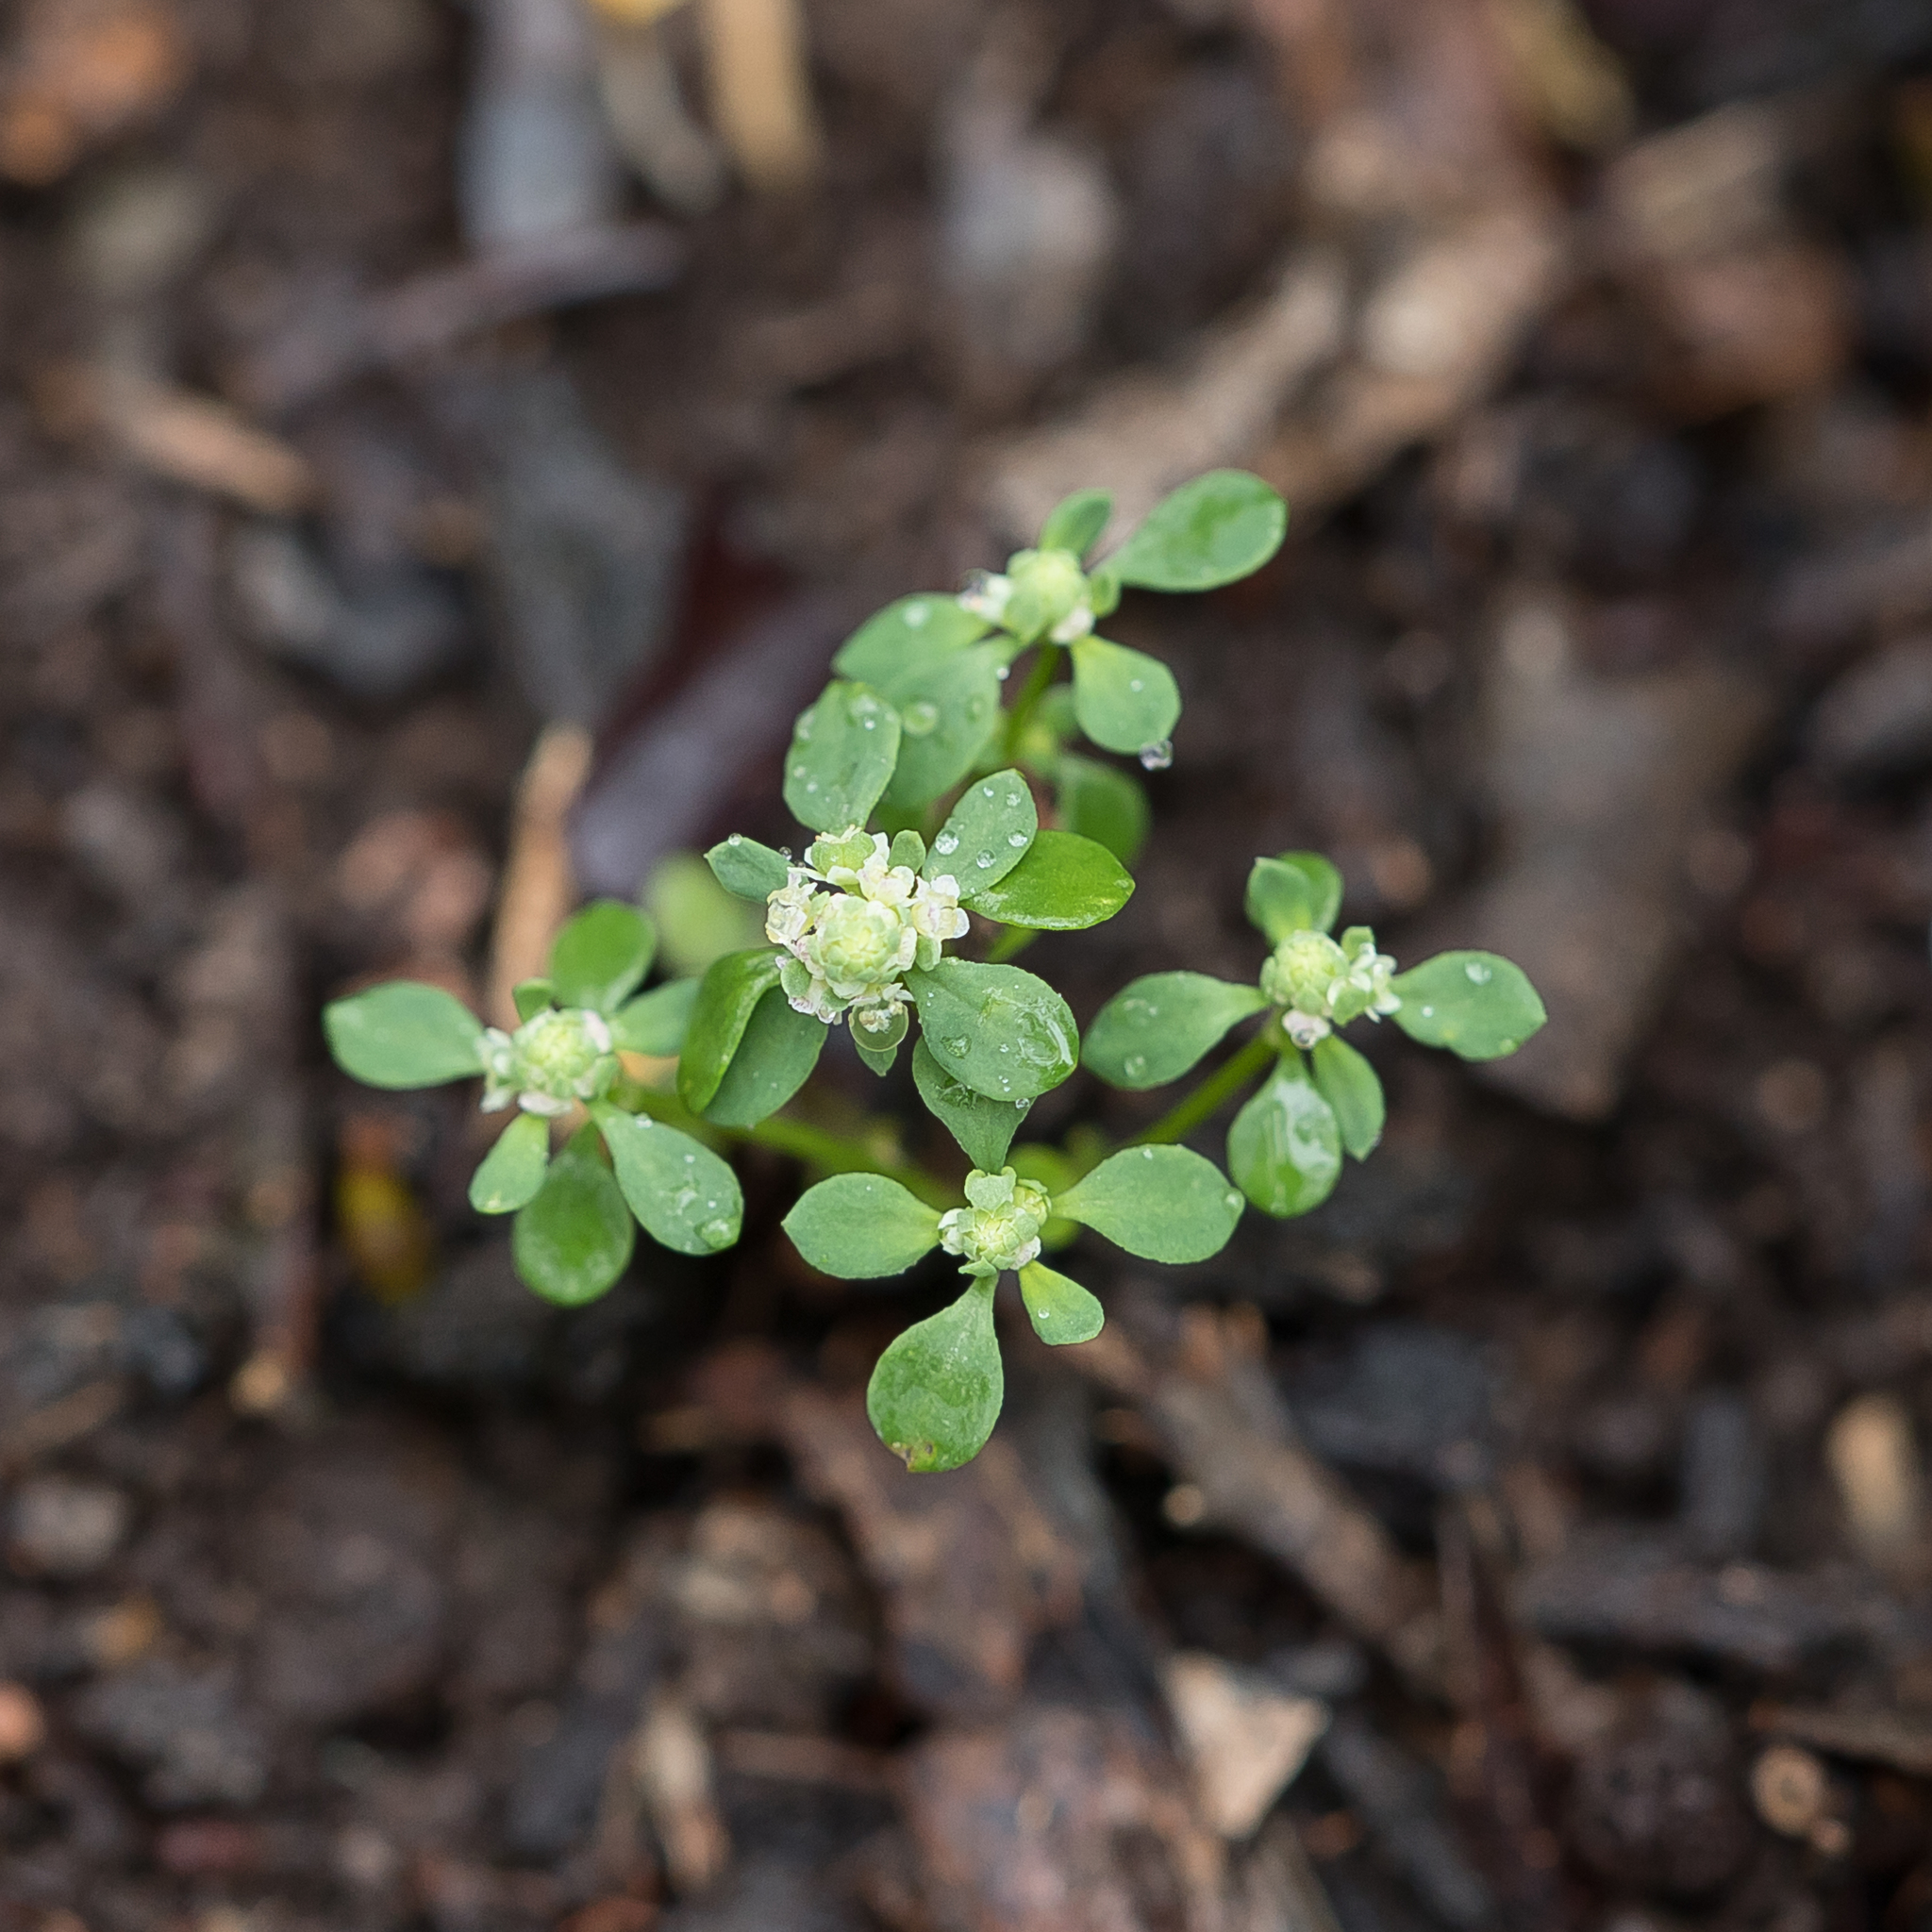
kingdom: Plantae
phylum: Tracheophyta
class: Magnoliopsida
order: Malpighiales
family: Phyllanthaceae
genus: Poranthera
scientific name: Poranthera microphylla
